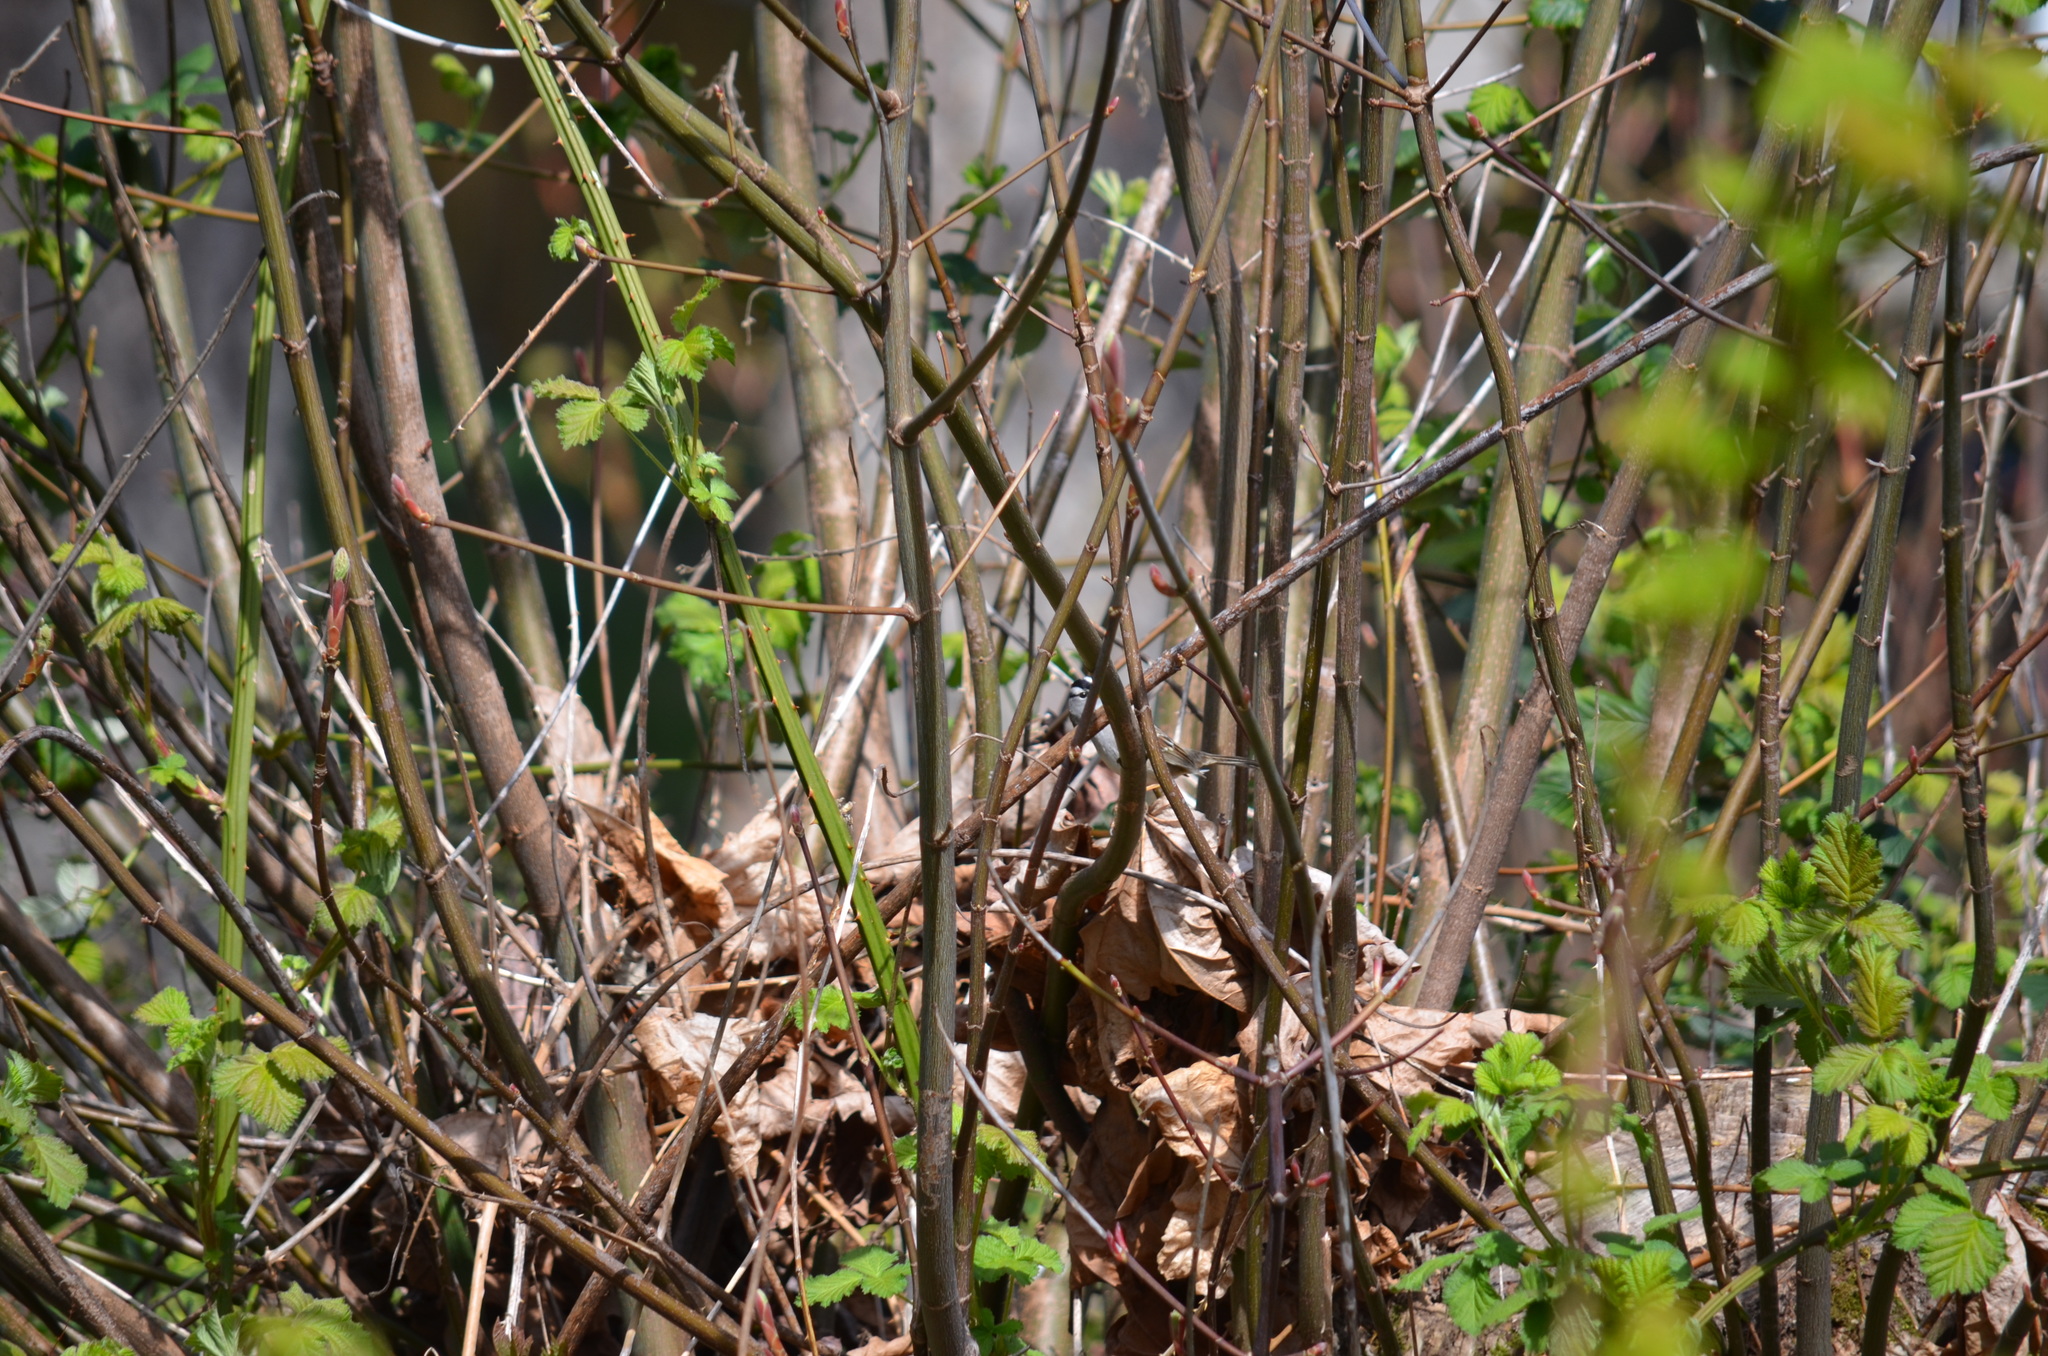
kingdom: Animalia
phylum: Chordata
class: Aves
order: Passeriformes
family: Passerellidae
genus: Zonotrichia
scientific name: Zonotrichia leucophrys
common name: White-crowned sparrow
